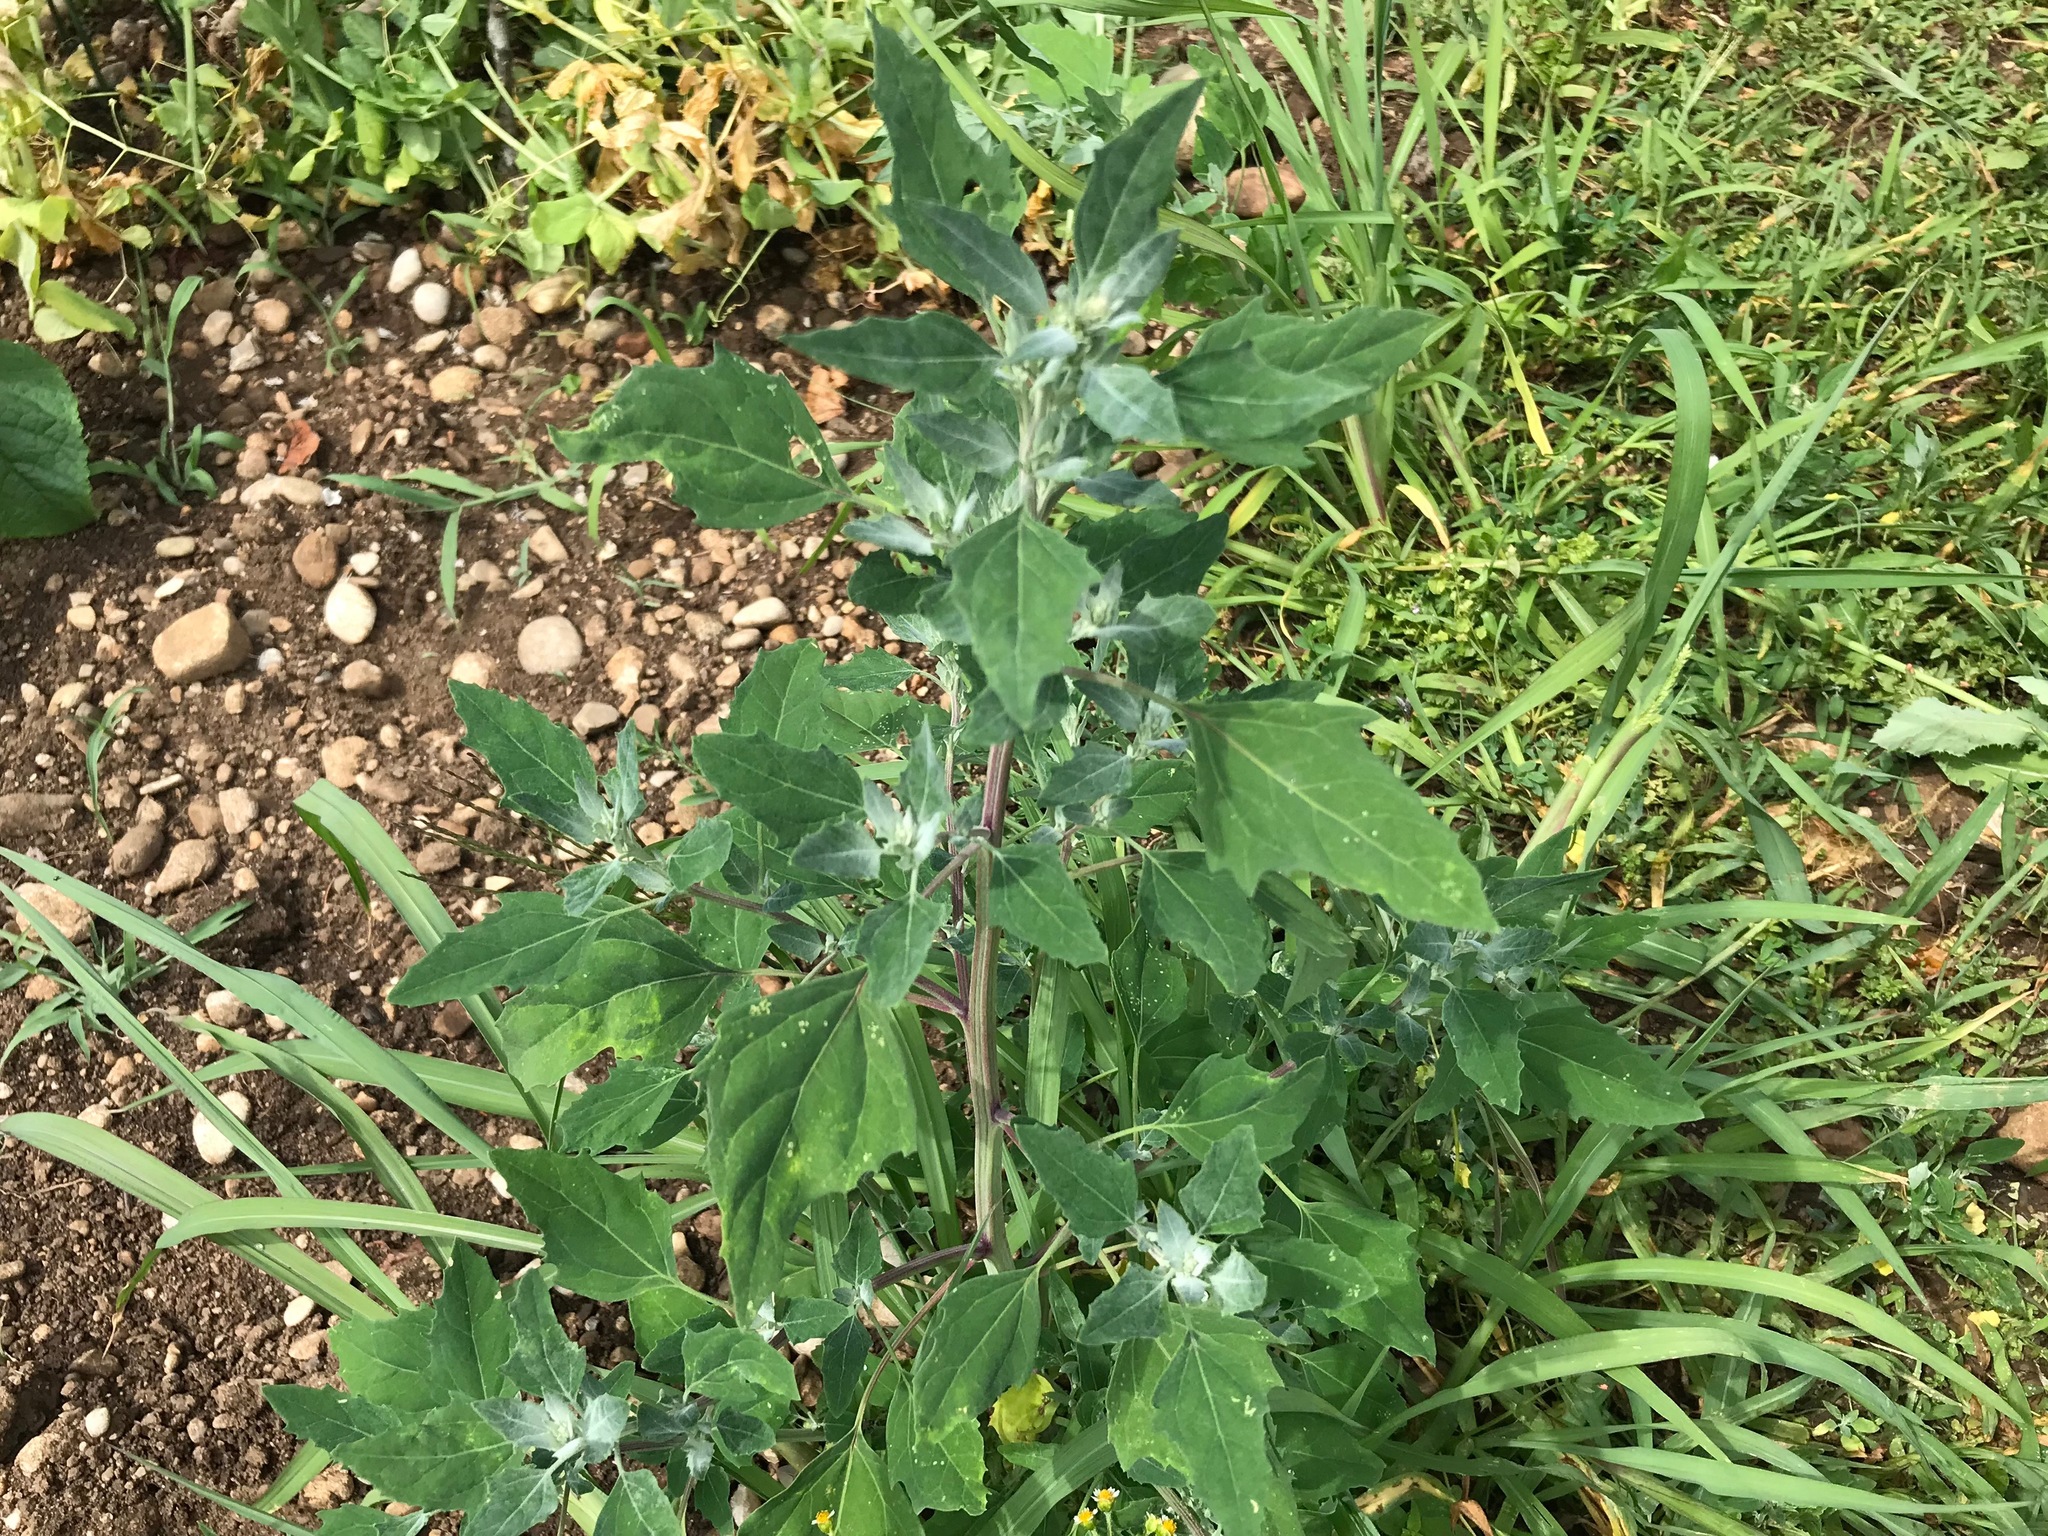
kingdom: Plantae
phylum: Tracheophyta
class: Magnoliopsida
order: Caryophyllales
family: Amaranthaceae
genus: Chenopodium
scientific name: Chenopodium album
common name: Fat-hen
